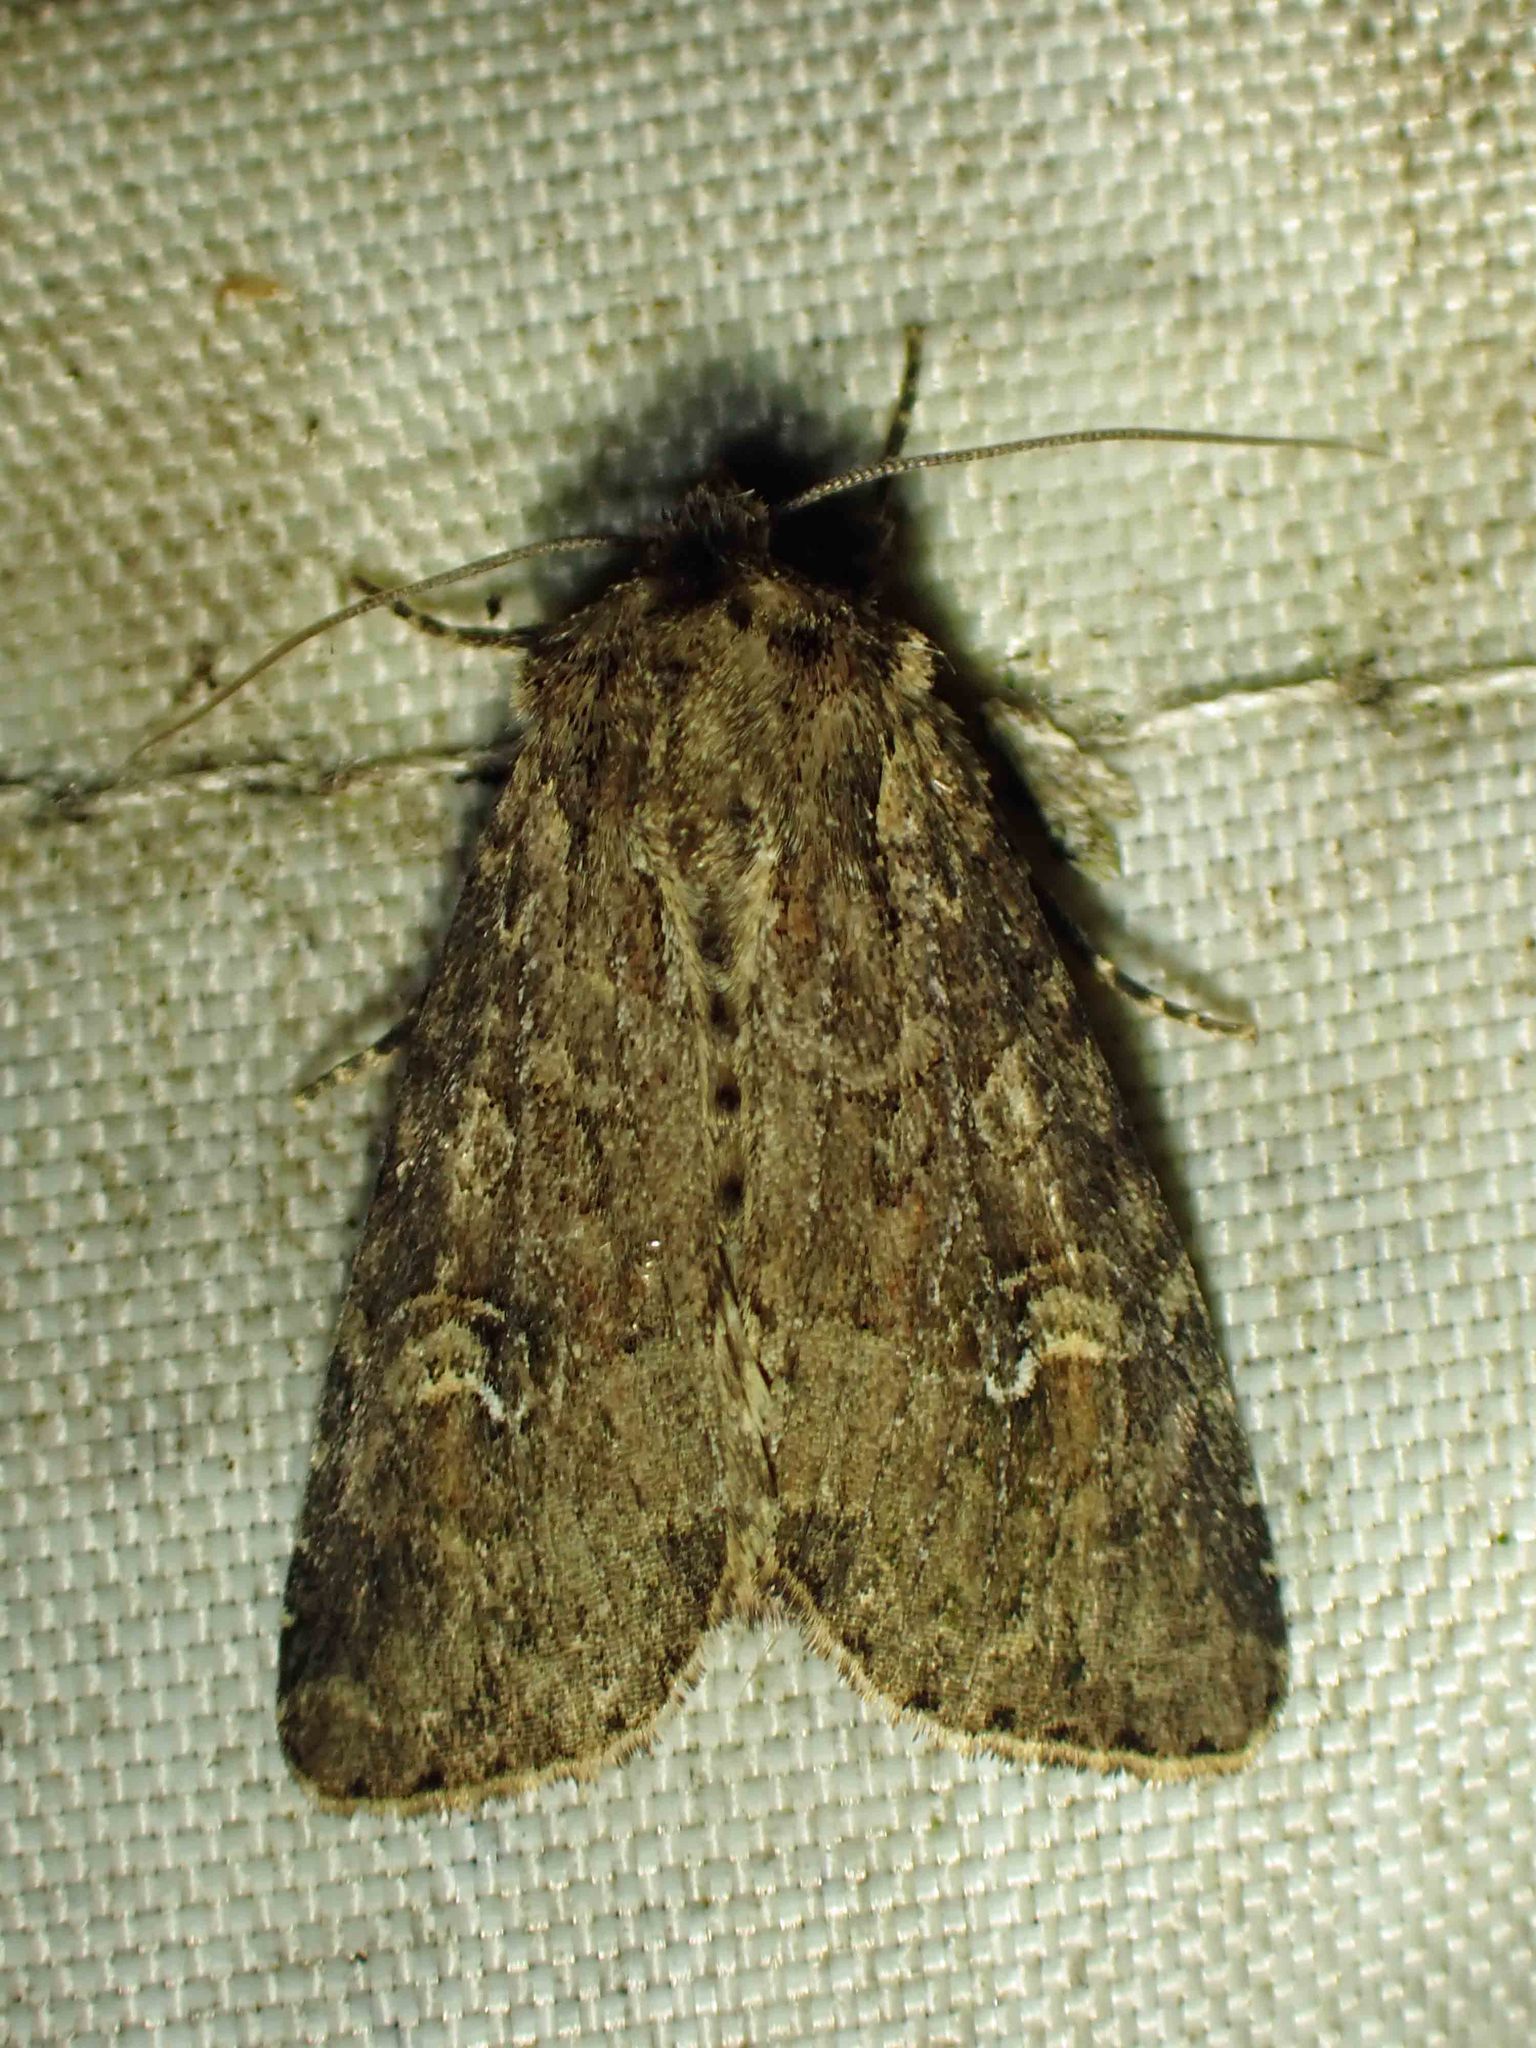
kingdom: Animalia
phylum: Arthropoda
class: Insecta
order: Lepidoptera
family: Noctuidae
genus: Apamea
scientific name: Apamea unanimis
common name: Small clouded brindle
